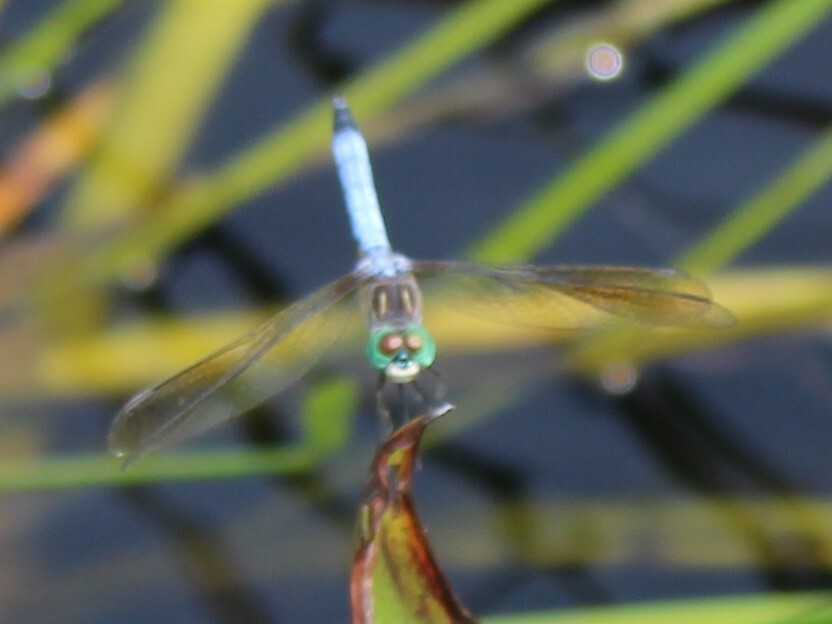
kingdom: Animalia
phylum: Arthropoda
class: Insecta
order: Odonata
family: Libellulidae
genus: Pachydiplax
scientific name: Pachydiplax longipennis
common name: Blue dasher
